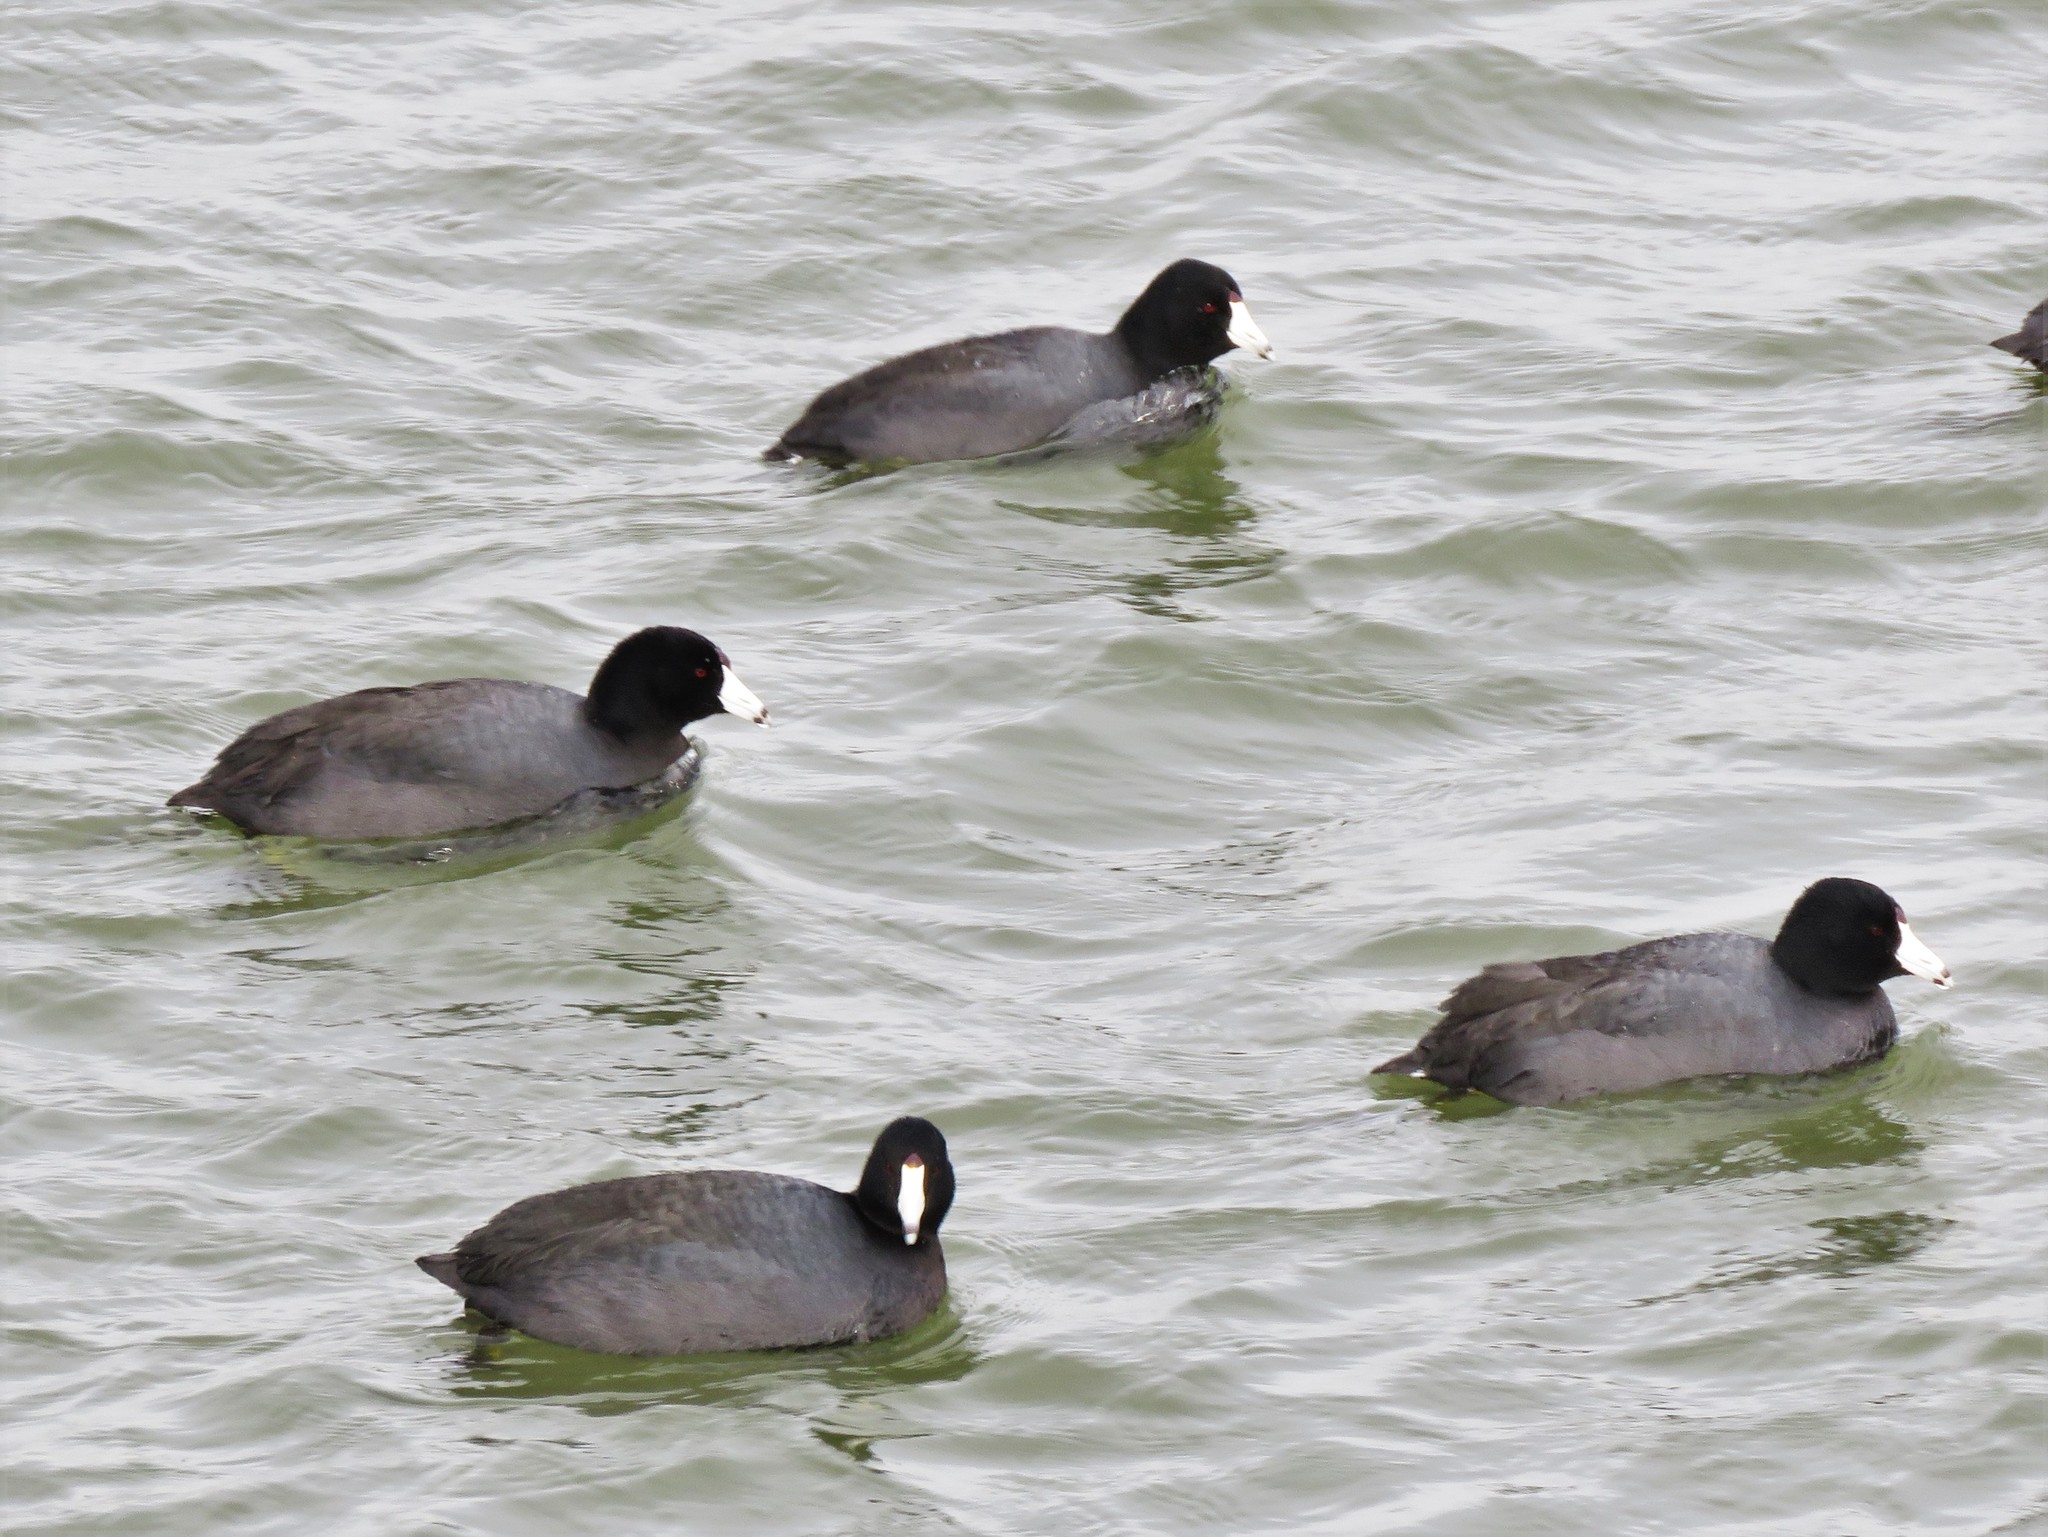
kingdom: Animalia
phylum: Chordata
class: Aves
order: Gruiformes
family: Rallidae
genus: Fulica
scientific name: Fulica americana
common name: American coot
